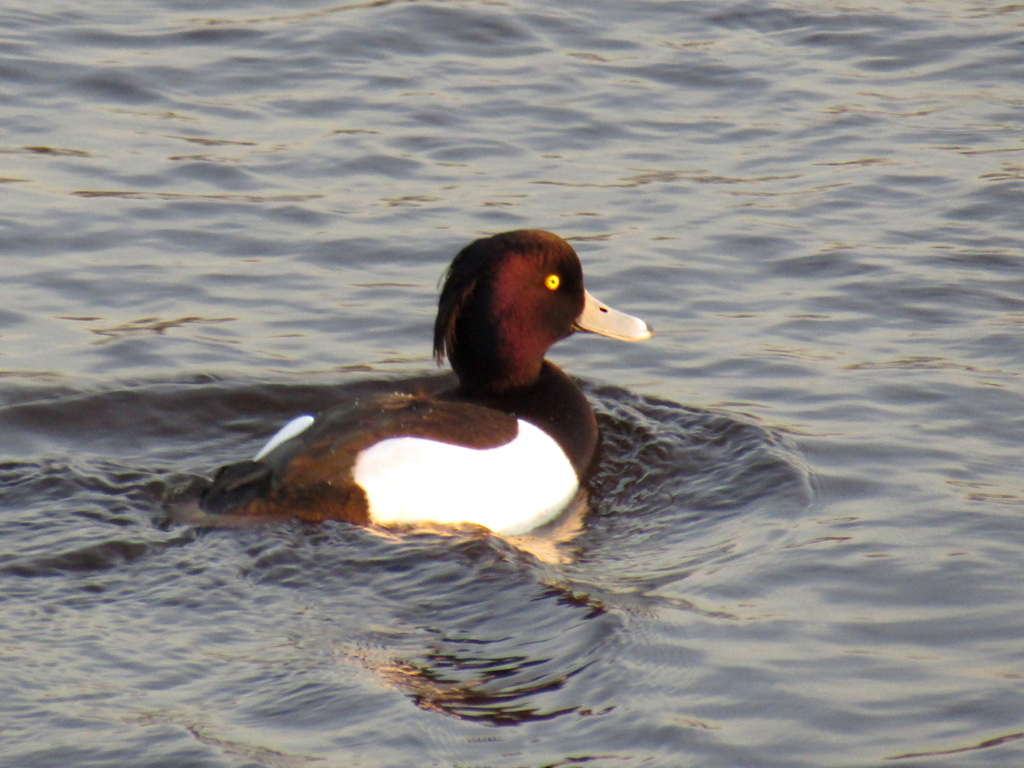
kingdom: Animalia
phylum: Chordata
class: Aves
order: Anseriformes
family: Anatidae
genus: Aythya
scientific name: Aythya fuligula
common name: Tufted duck
